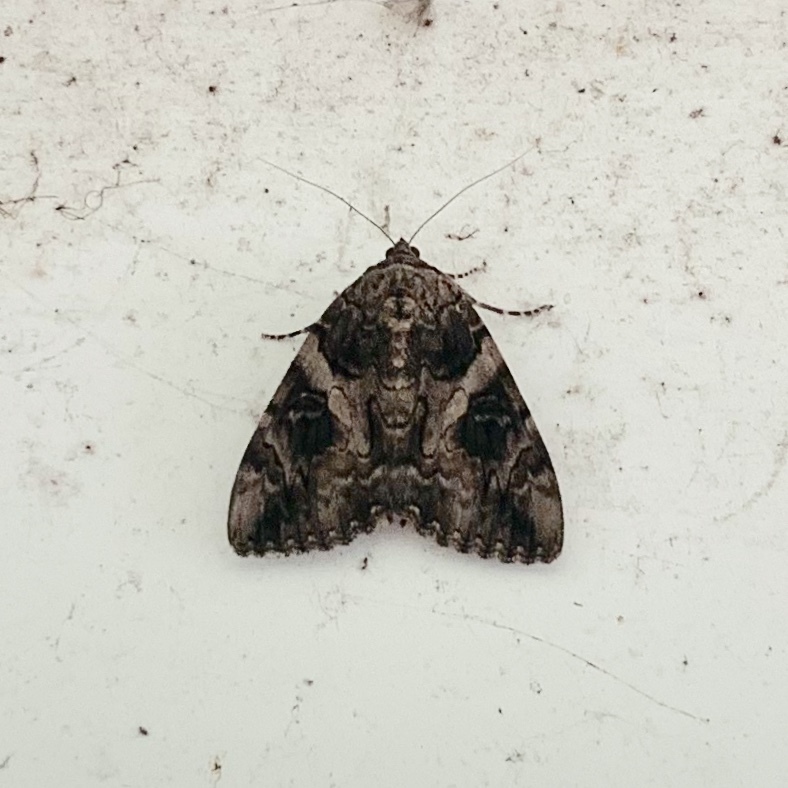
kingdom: Animalia
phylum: Arthropoda
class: Insecta
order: Lepidoptera
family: Erebidae
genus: Catocala
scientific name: Catocala piatrix
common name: The penitent underwing
